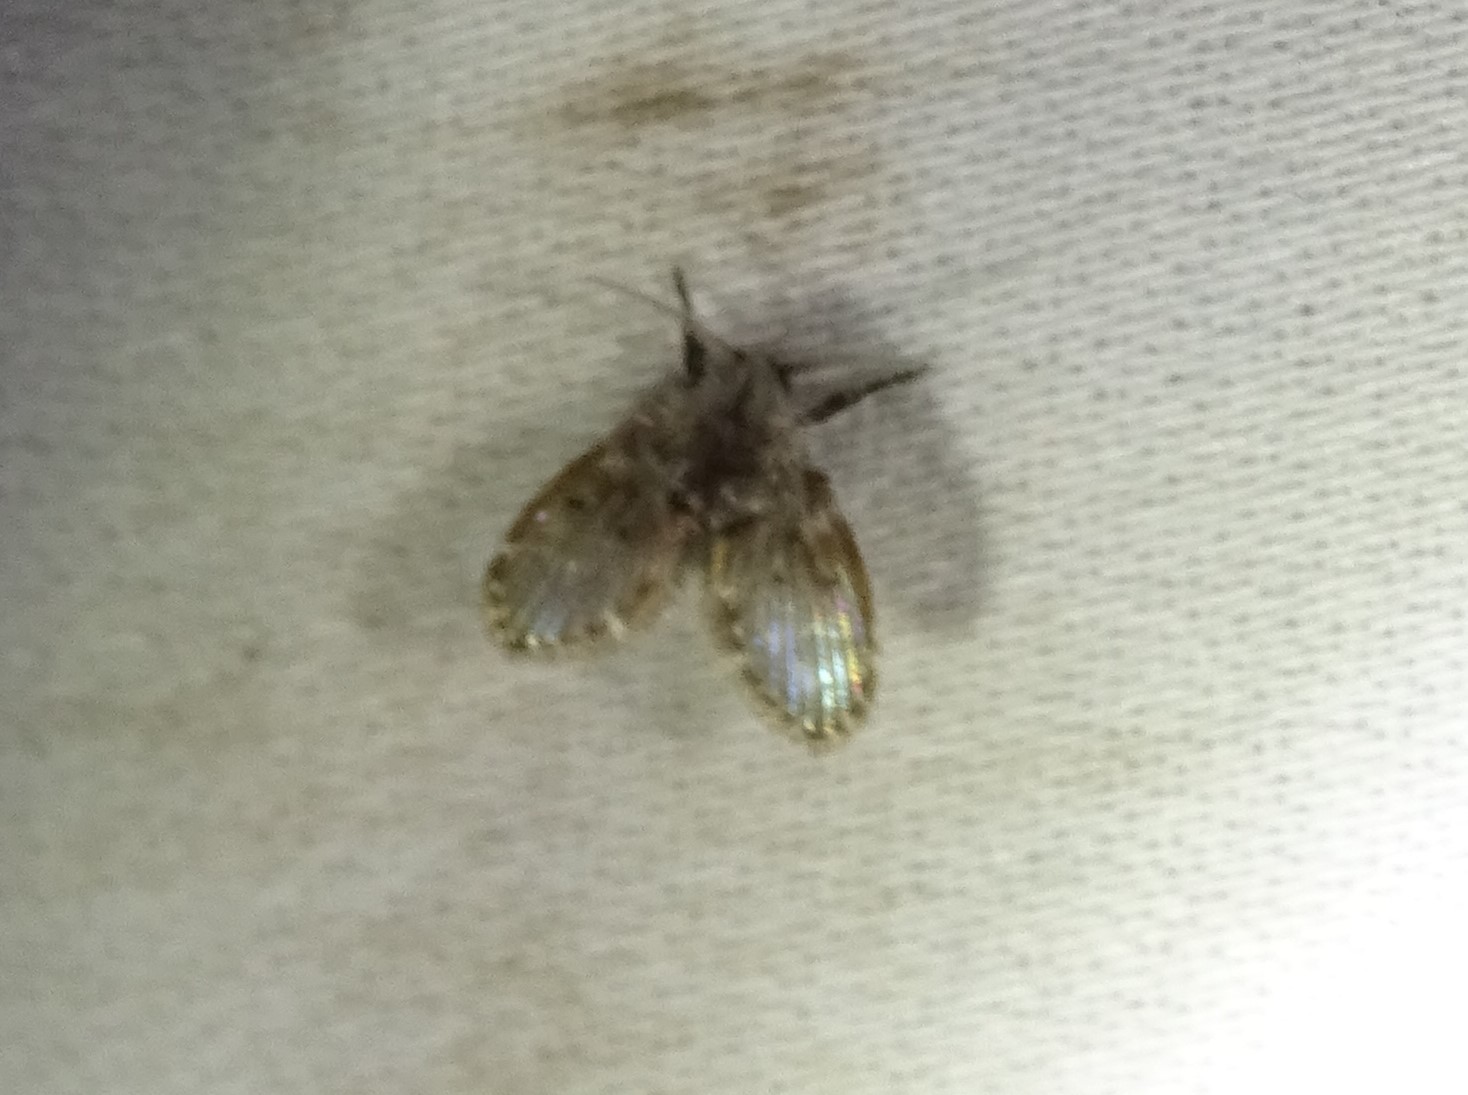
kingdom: Animalia
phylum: Arthropoda
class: Insecta
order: Diptera
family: Psychodidae
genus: Clogmia
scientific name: Clogmia albipunctatus
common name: White-spotted moth fly
